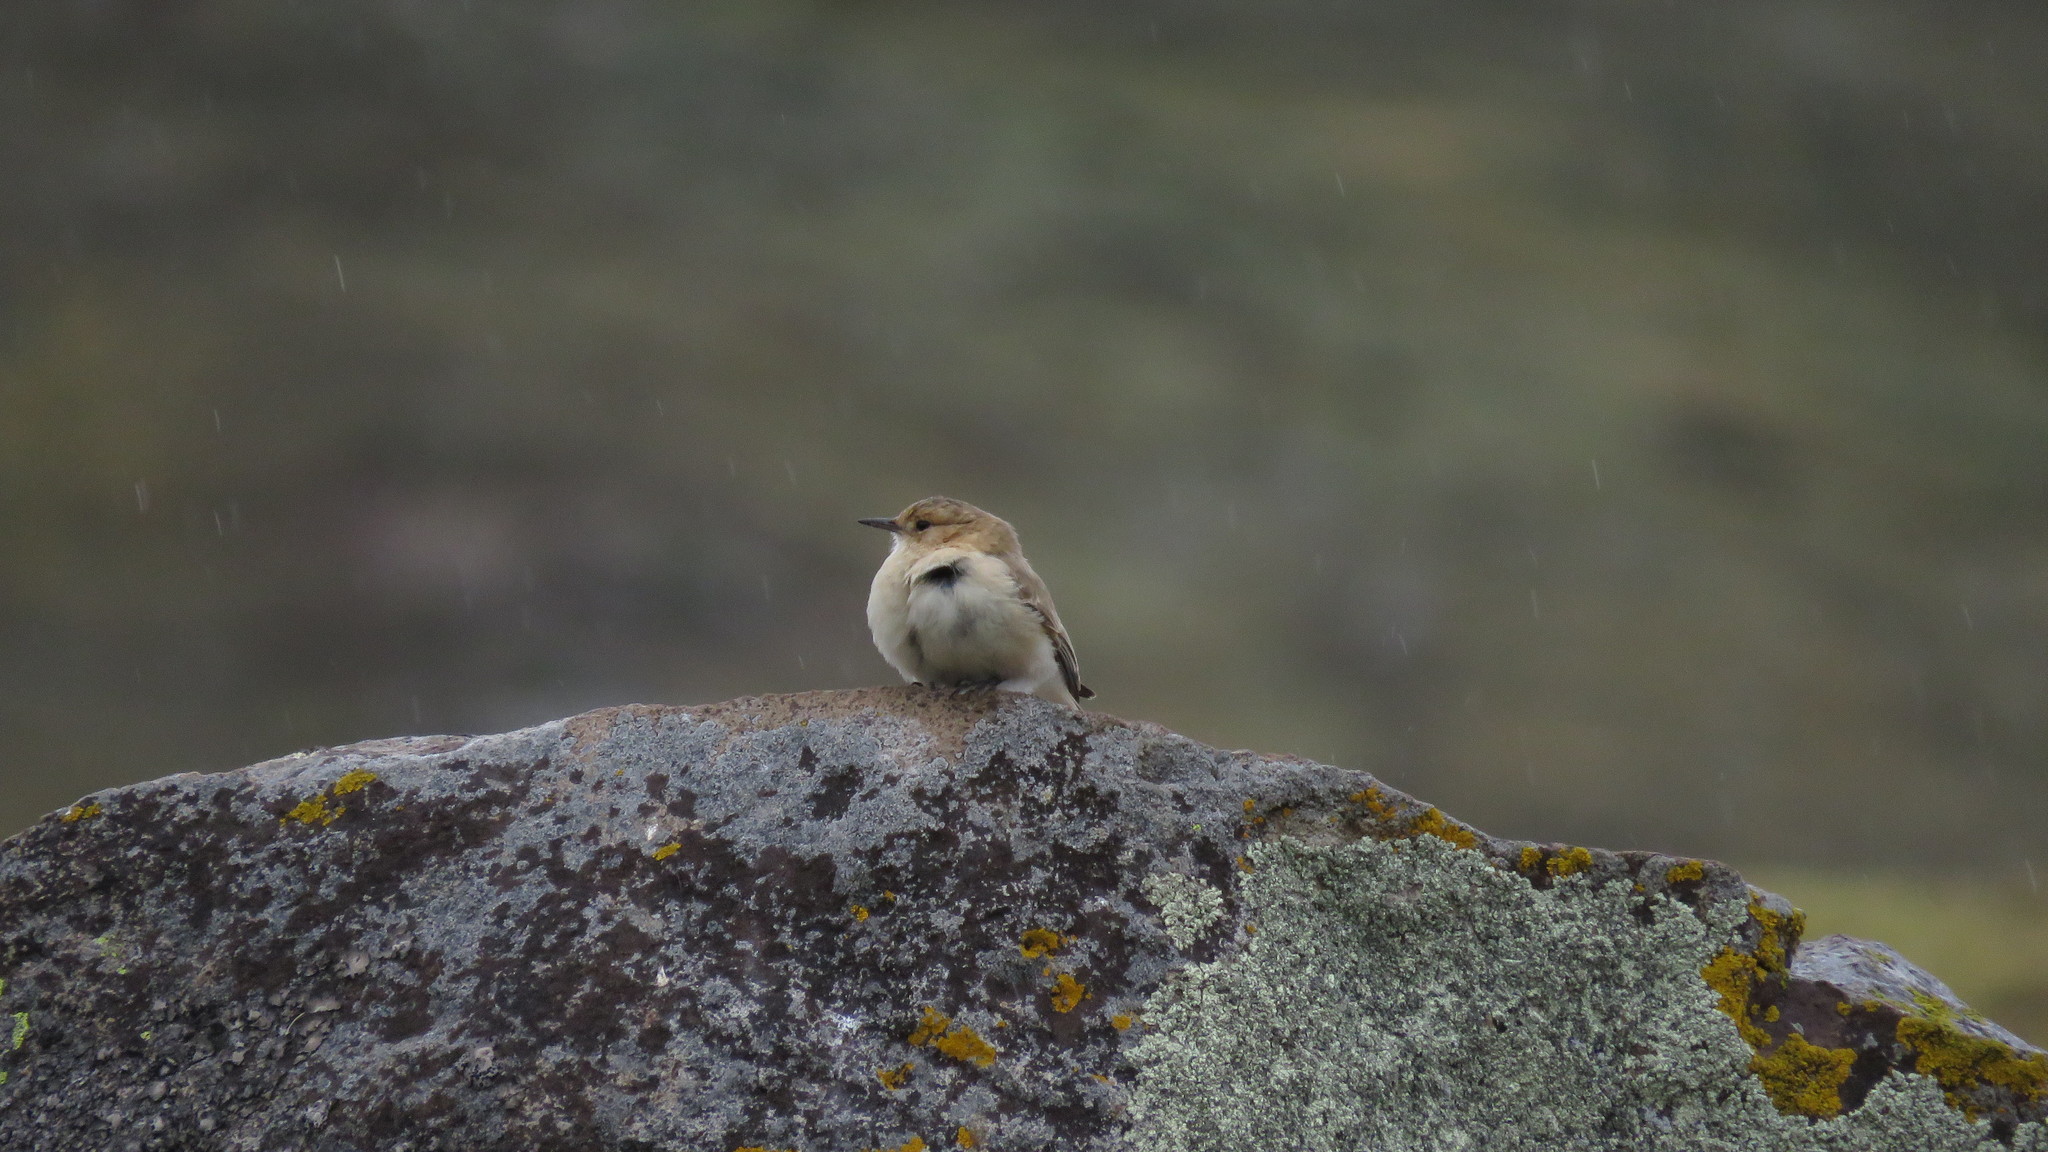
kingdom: Animalia
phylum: Chordata
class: Aves
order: Passeriformes
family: Furnariidae
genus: Geositta
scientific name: Geositta saxicolina
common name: Dark-winged miner
